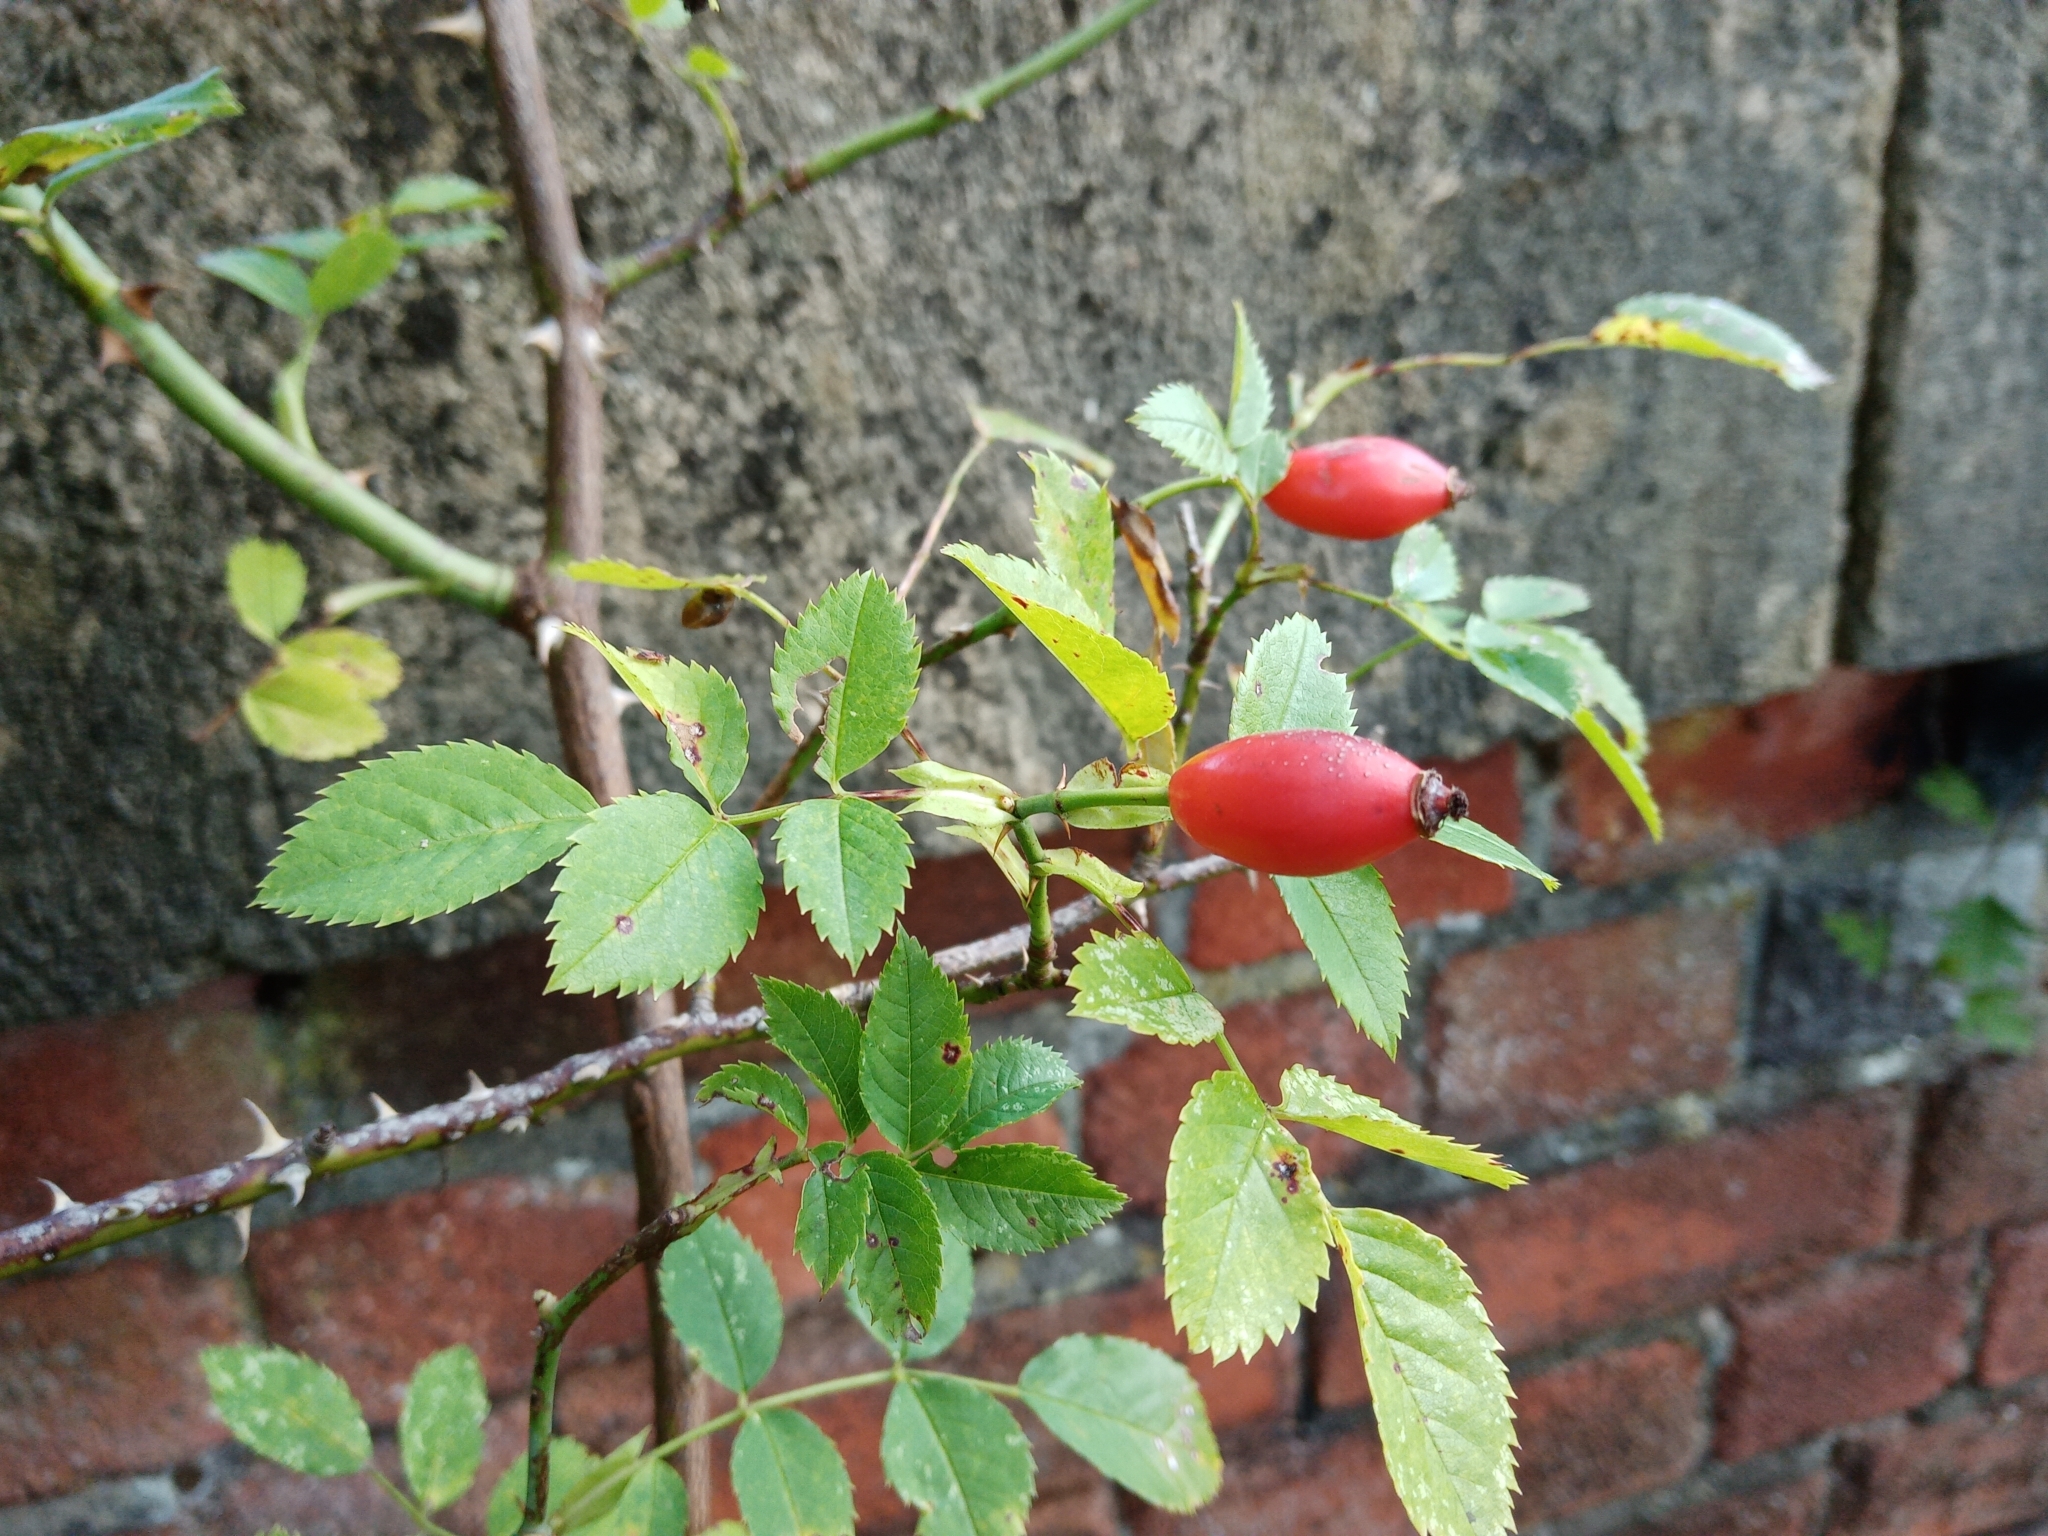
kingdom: Plantae
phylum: Tracheophyta
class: Magnoliopsida
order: Rosales
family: Rosaceae
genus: Rosa
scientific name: Rosa canina
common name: Dog rose
